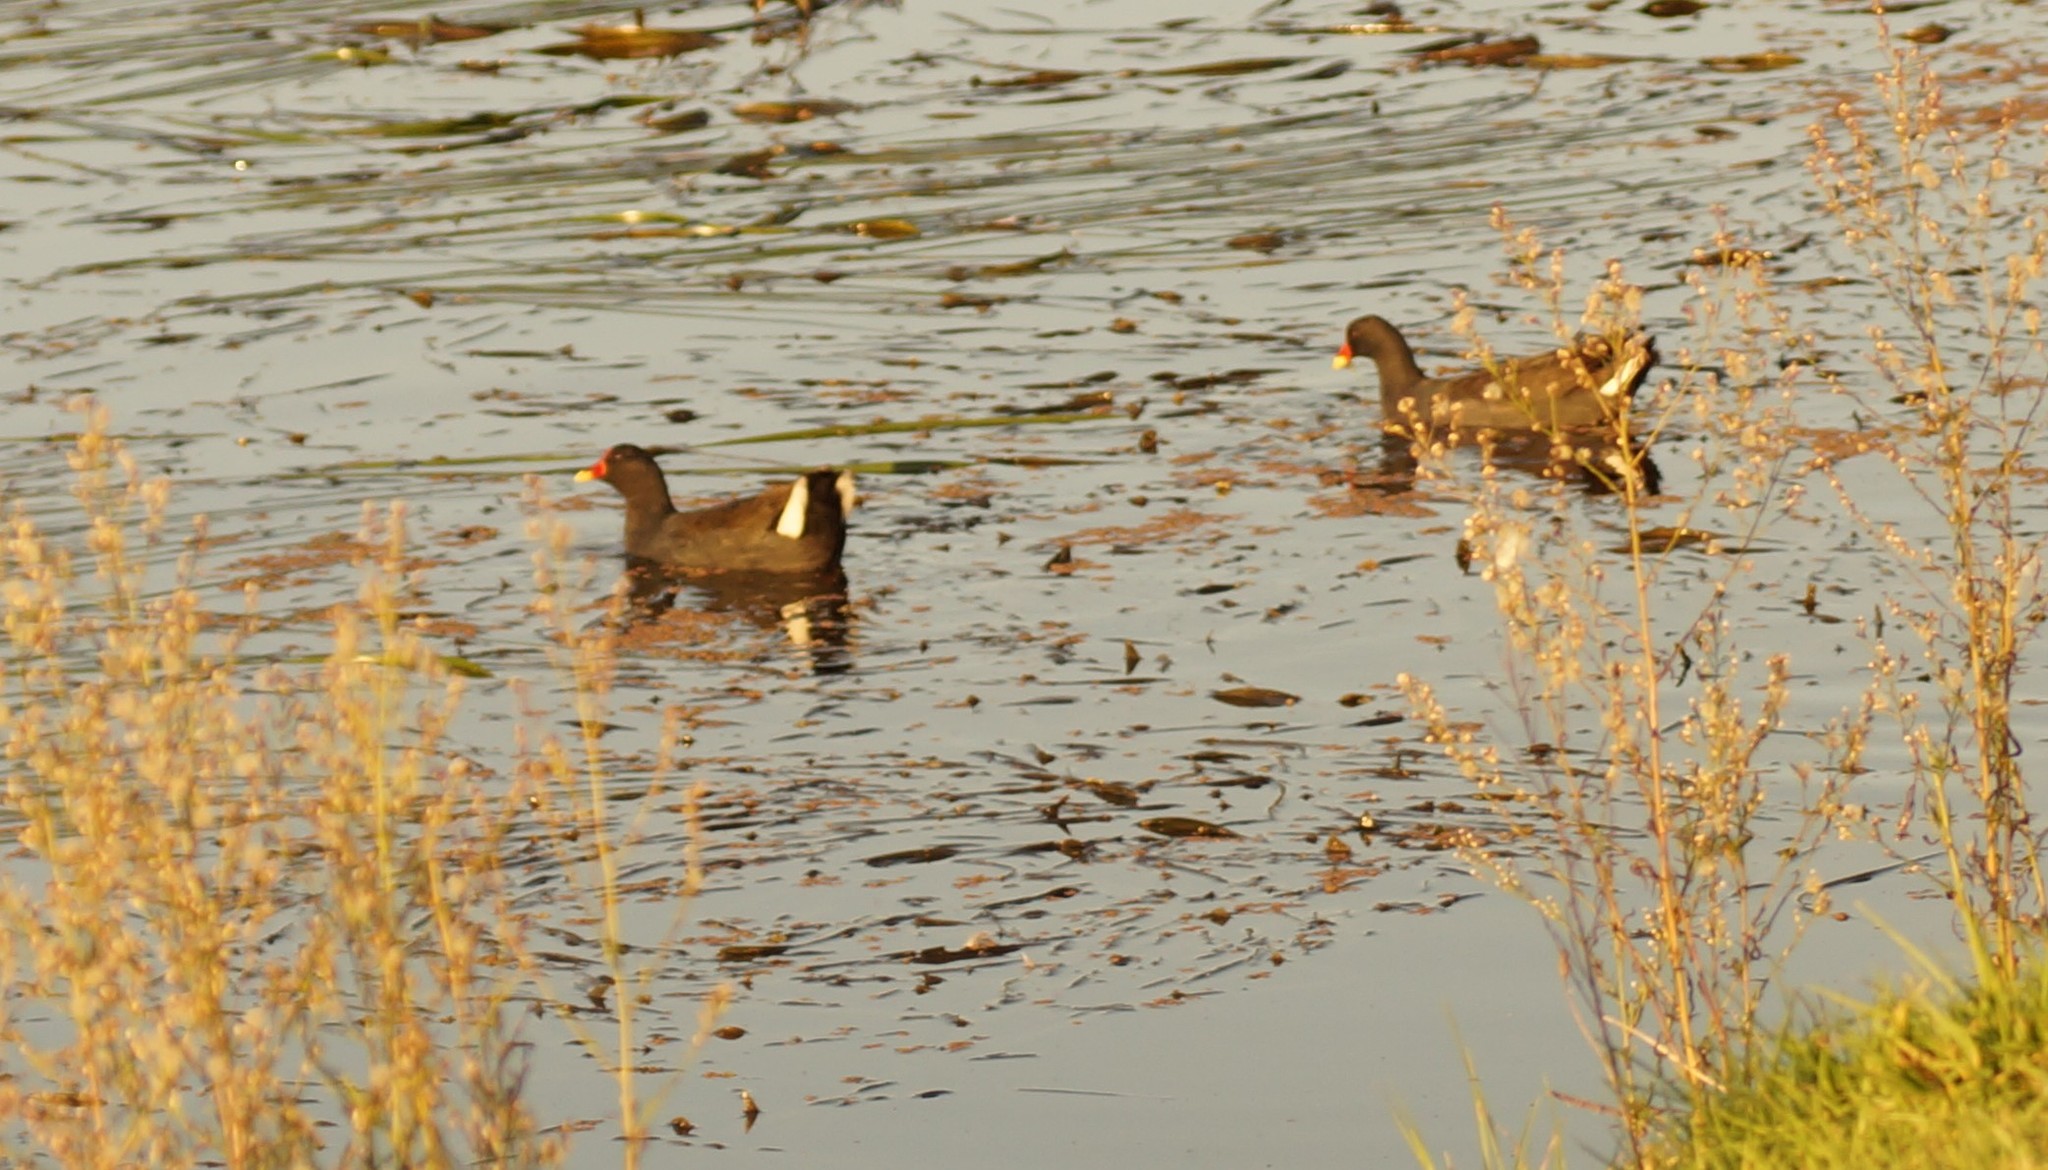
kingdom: Animalia
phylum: Chordata
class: Aves
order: Gruiformes
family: Rallidae
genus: Gallinula
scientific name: Gallinula tenebrosa
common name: Dusky moorhen
